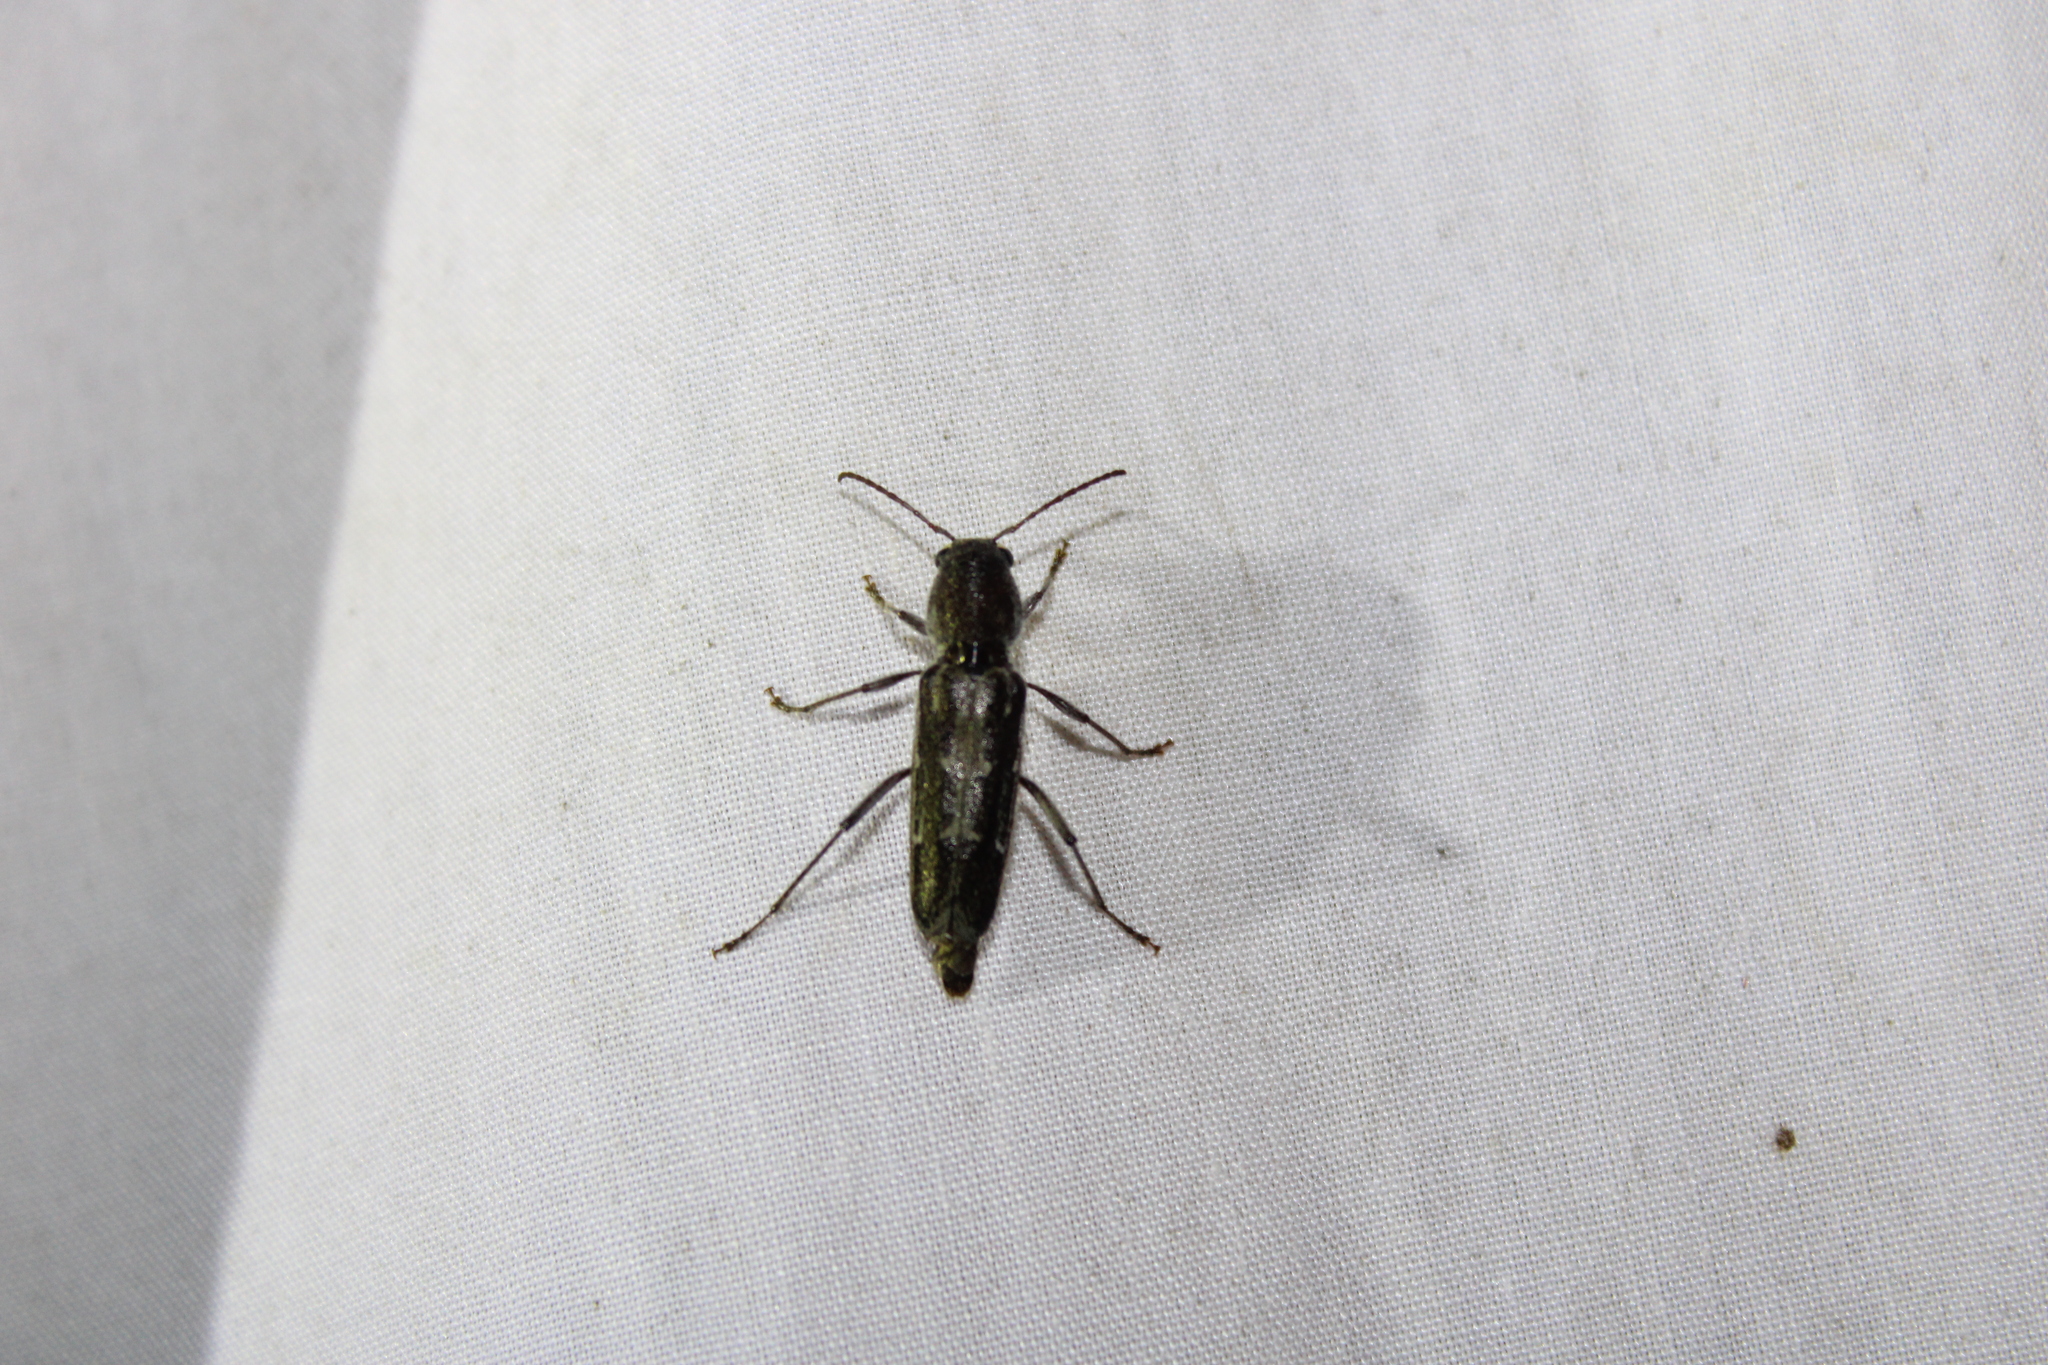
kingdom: Animalia
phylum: Arthropoda
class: Insecta
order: Coleoptera
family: Cerambycidae
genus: Xylotrechus
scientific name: Xylotrechus sagittatus
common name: Arrowhead borer
